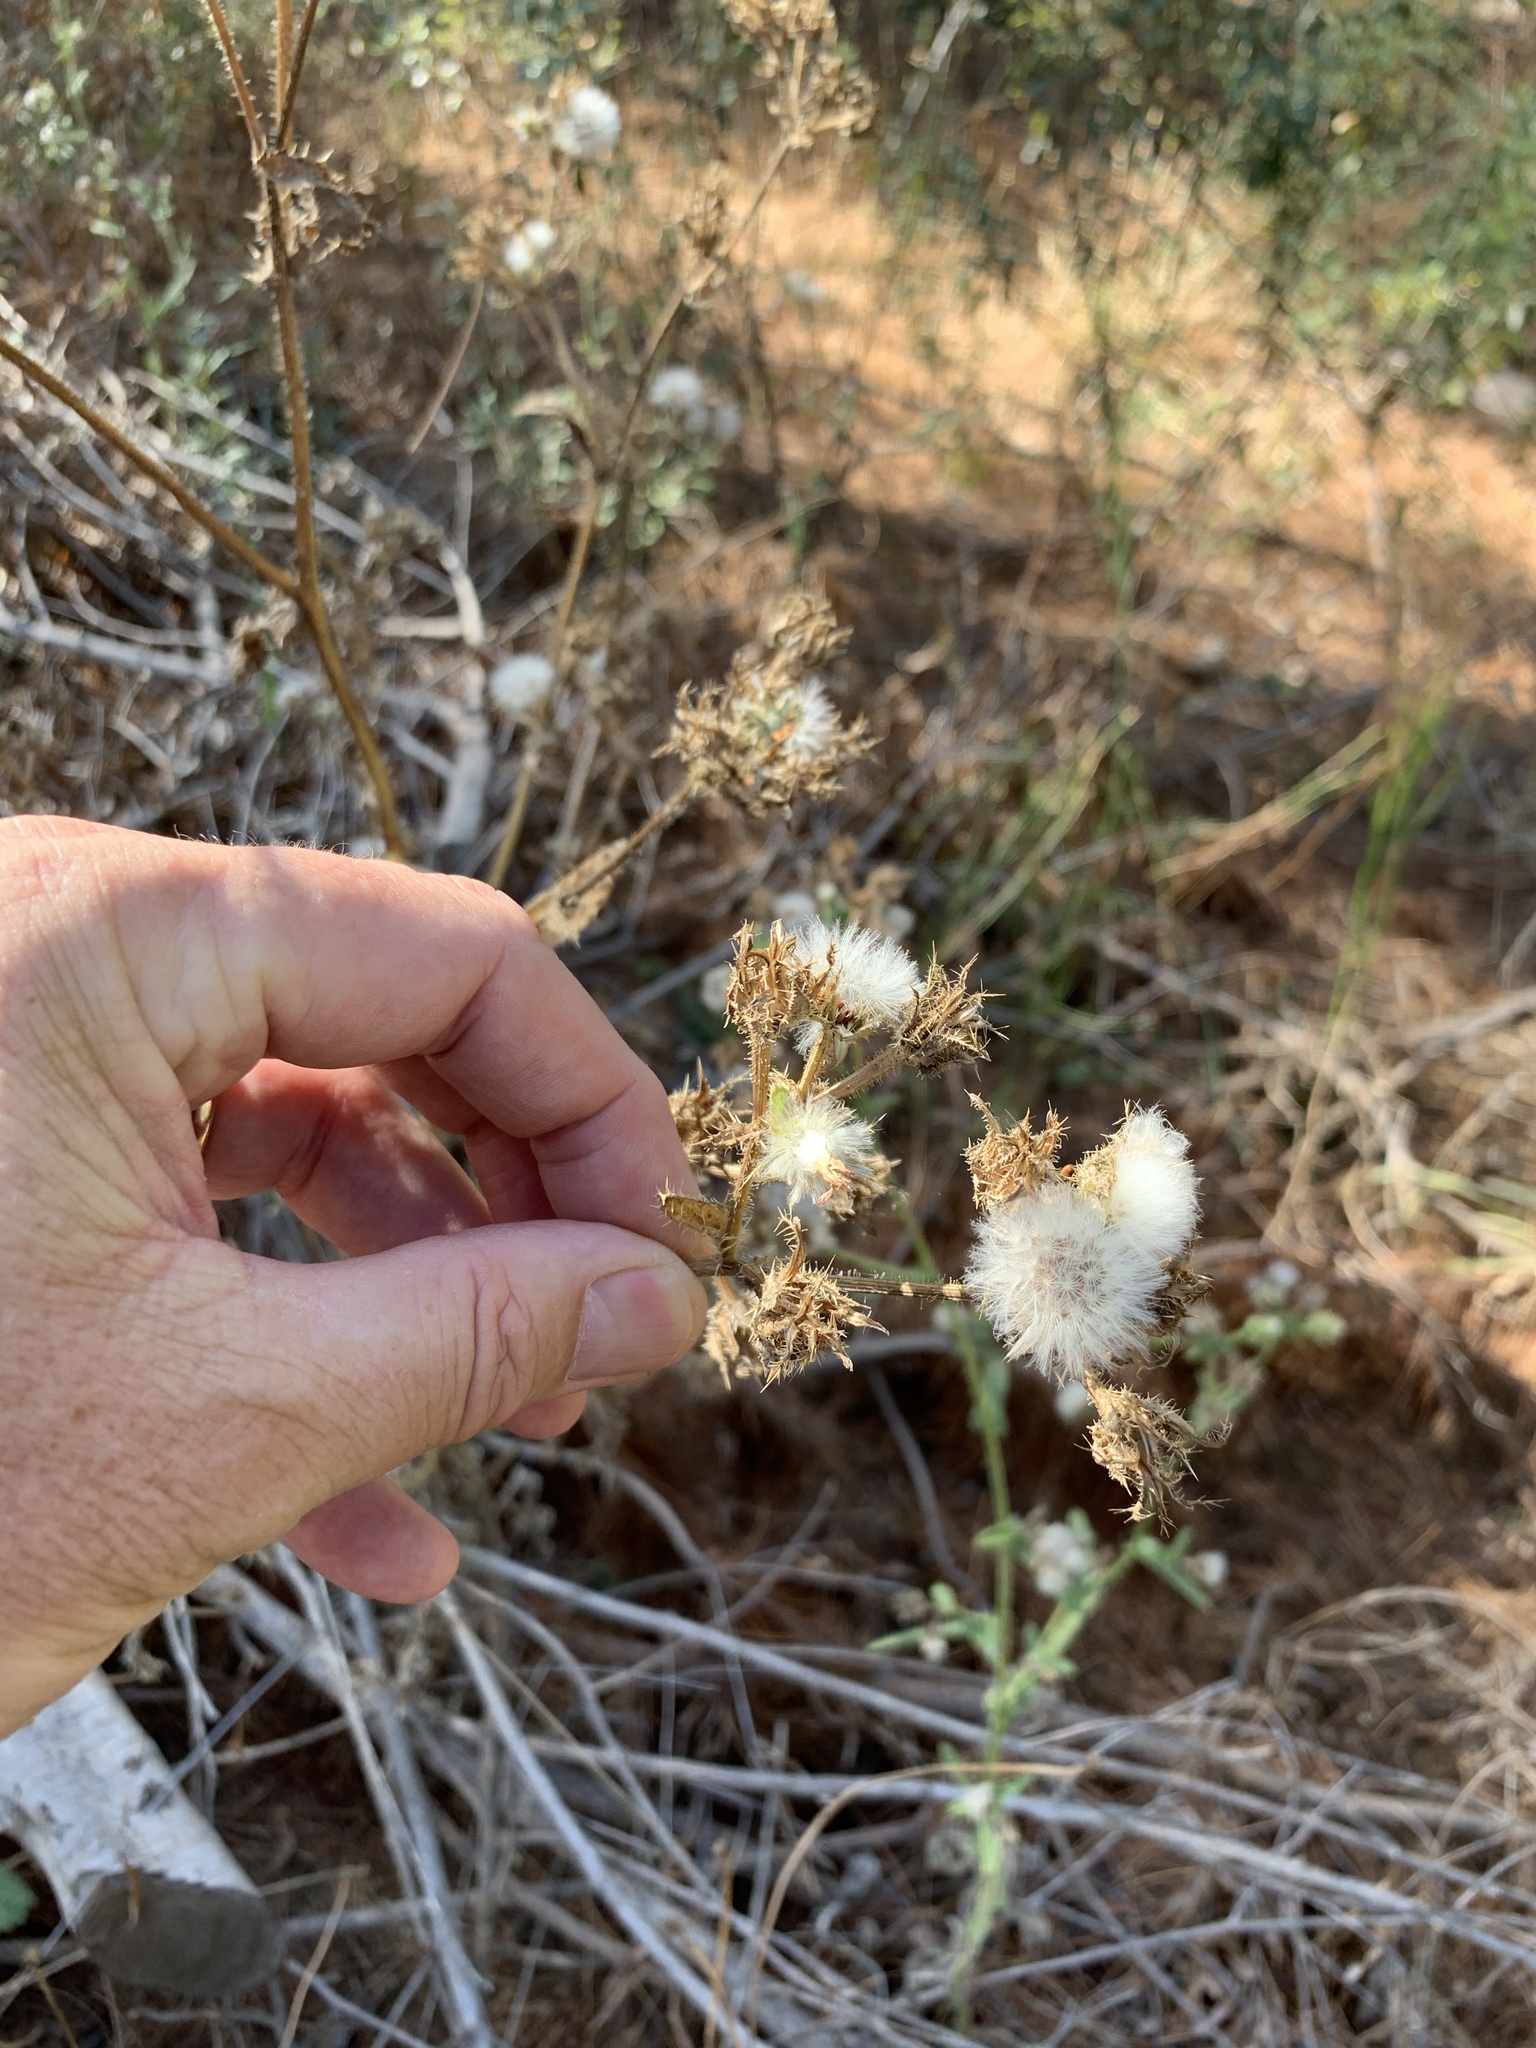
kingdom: Plantae
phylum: Tracheophyta
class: Magnoliopsida
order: Asterales
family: Asteraceae
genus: Helminthotheca
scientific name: Helminthotheca echioides
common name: Ox-tongue
